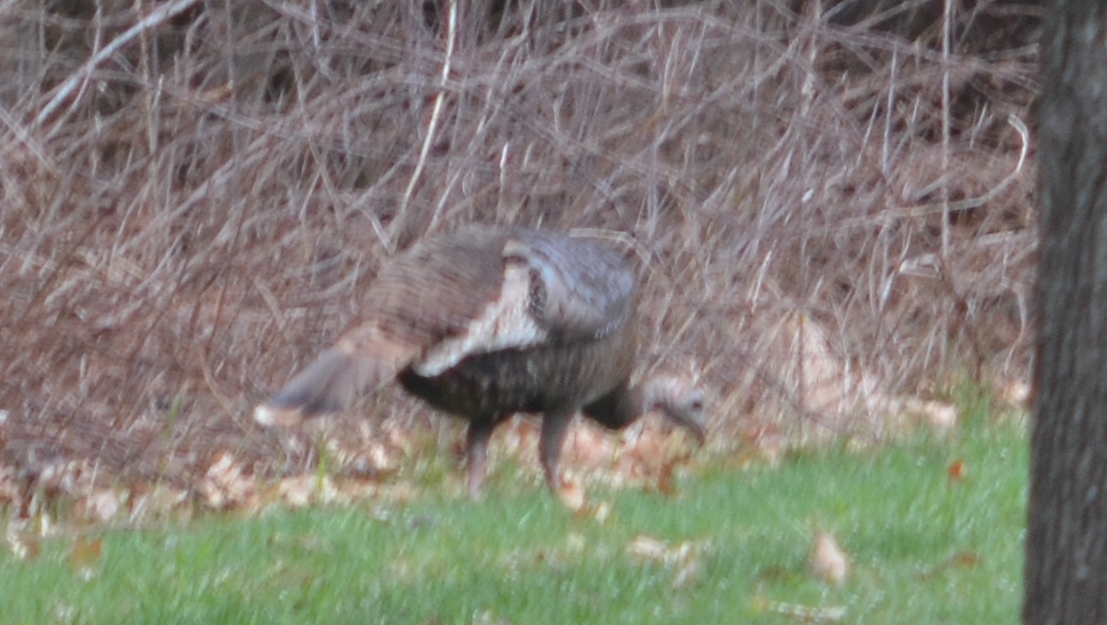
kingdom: Animalia
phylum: Chordata
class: Aves
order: Galliformes
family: Phasianidae
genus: Meleagris
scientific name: Meleagris gallopavo
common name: Wild turkey
